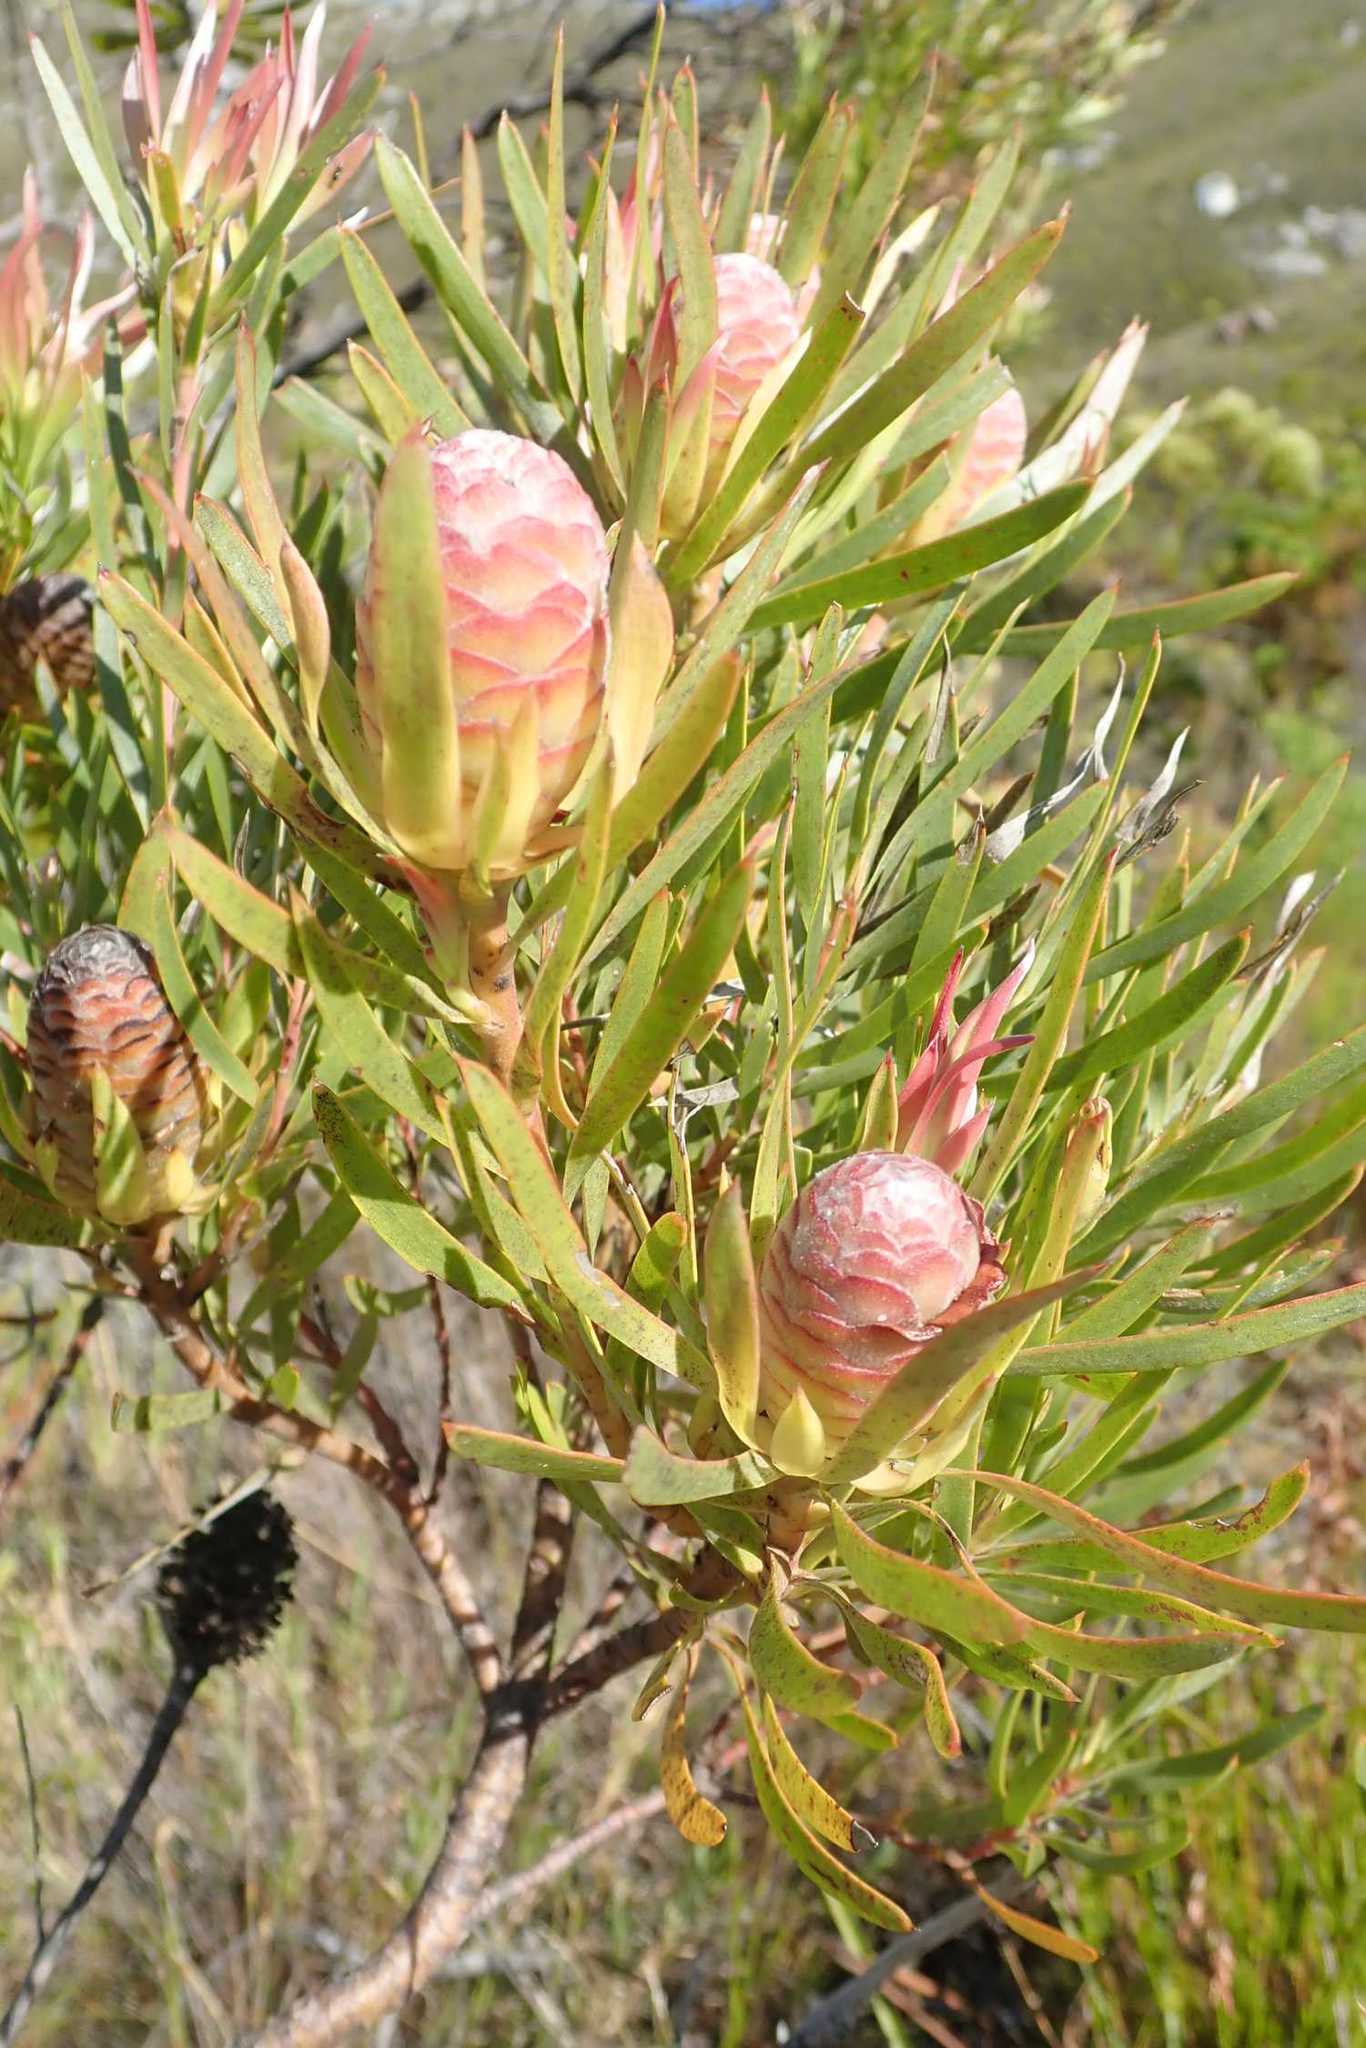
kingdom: Plantae
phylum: Tracheophyta
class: Magnoliopsida
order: Proteales
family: Proteaceae
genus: Leucadendron
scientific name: Leucadendron xanthoconus
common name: Sickle-leaf conebush
